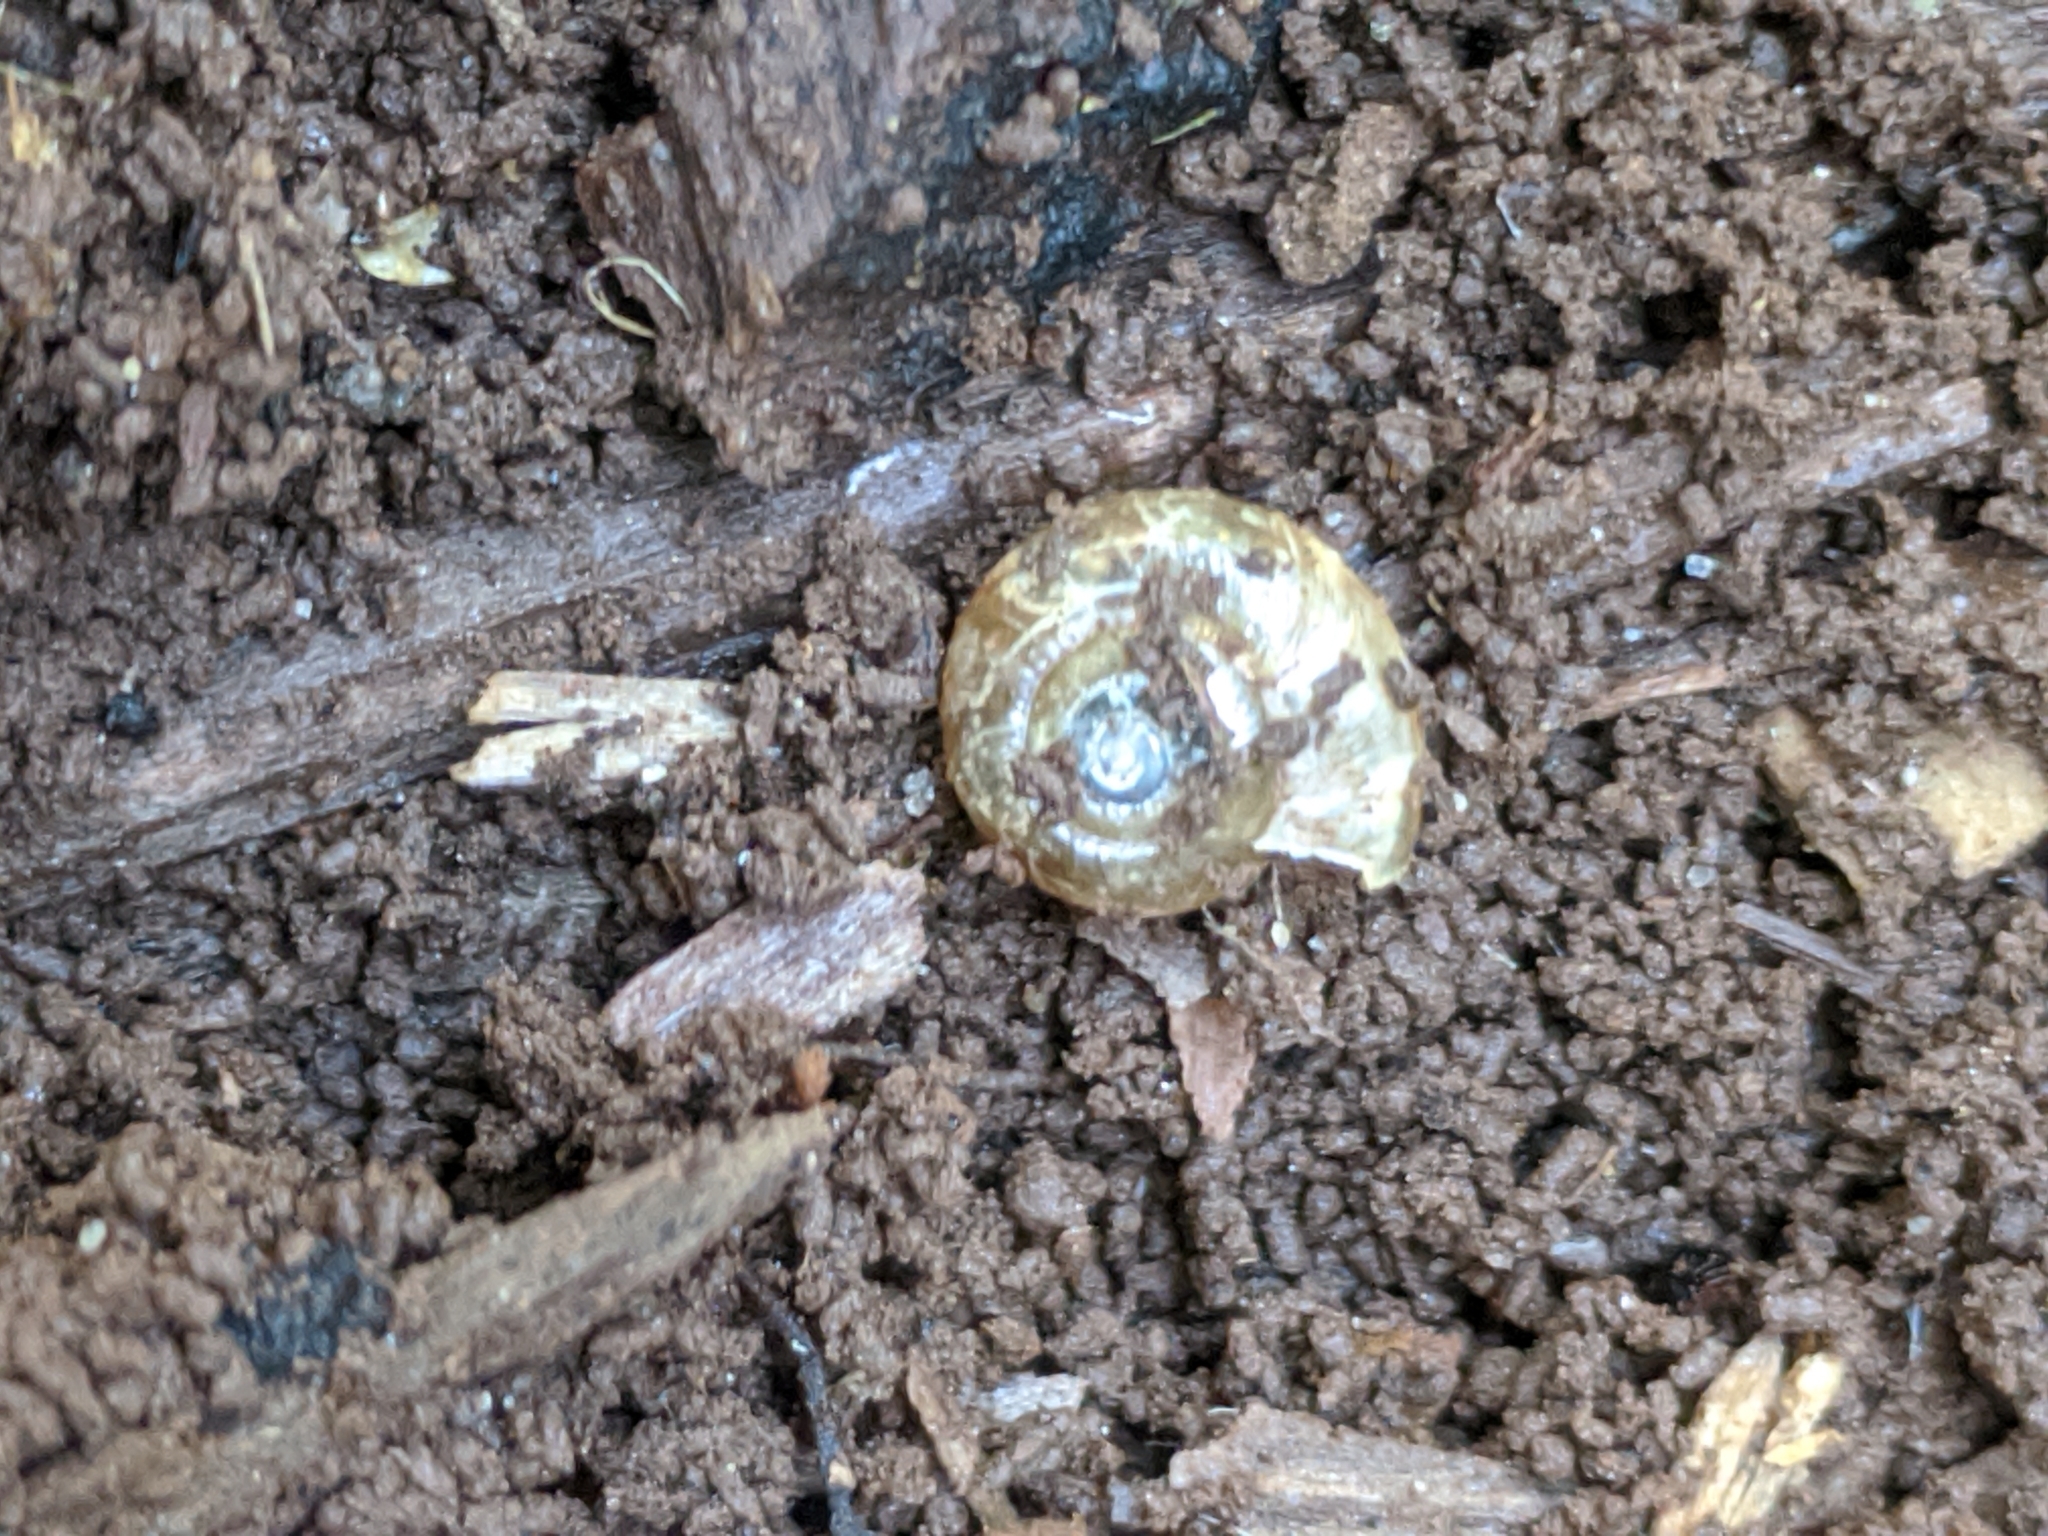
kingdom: Animalia
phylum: Mollusca
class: Gastropoda
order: Stylommatophora
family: Oxychilidae
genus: Oxychilus
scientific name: Oxychilus
